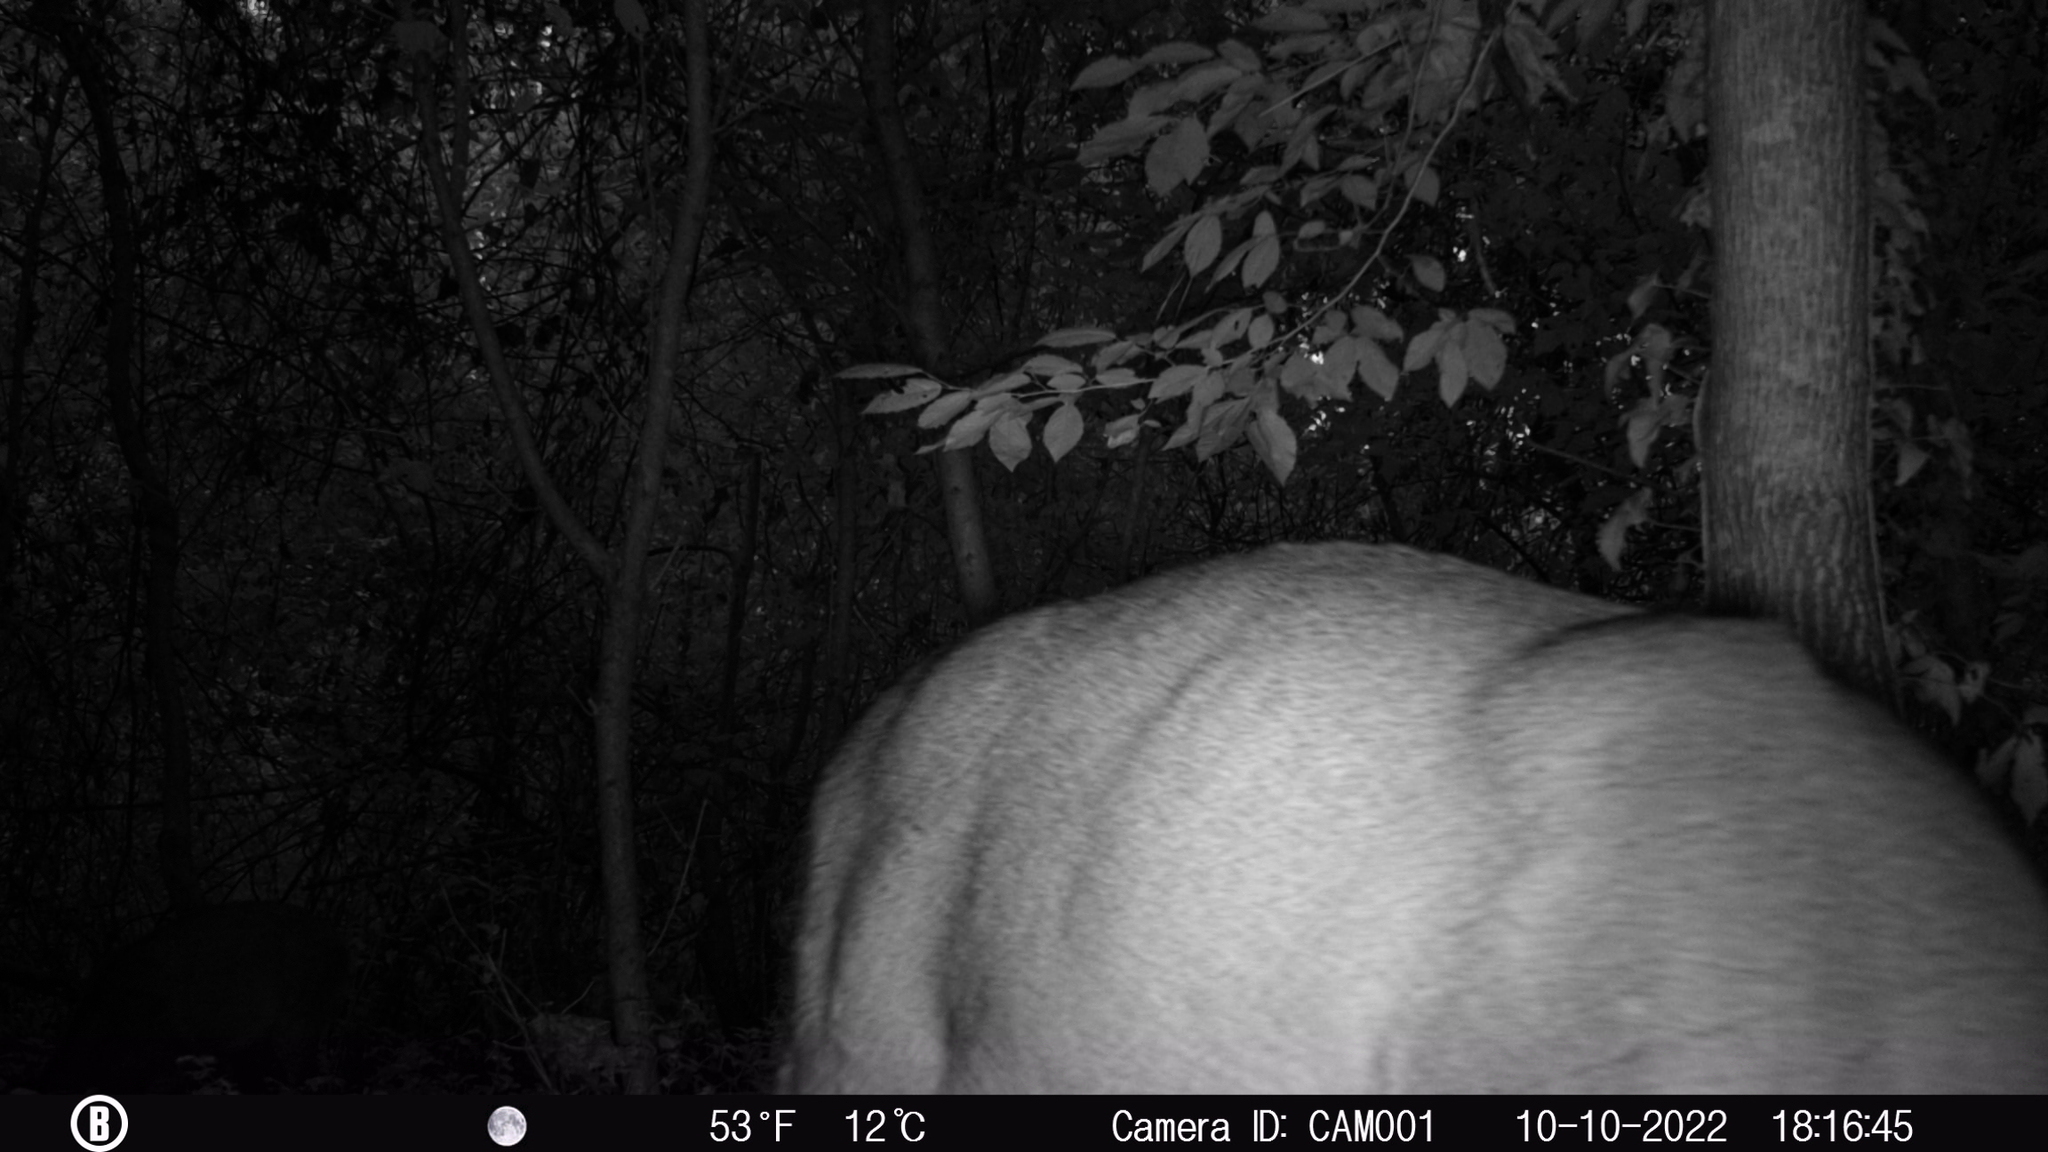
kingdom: Animalia
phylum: Chordata
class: Mammalia
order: Artiodactyla
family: Cervidae
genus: Odocoileus
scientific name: Odocoileus virginianus
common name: White-tailed deer
